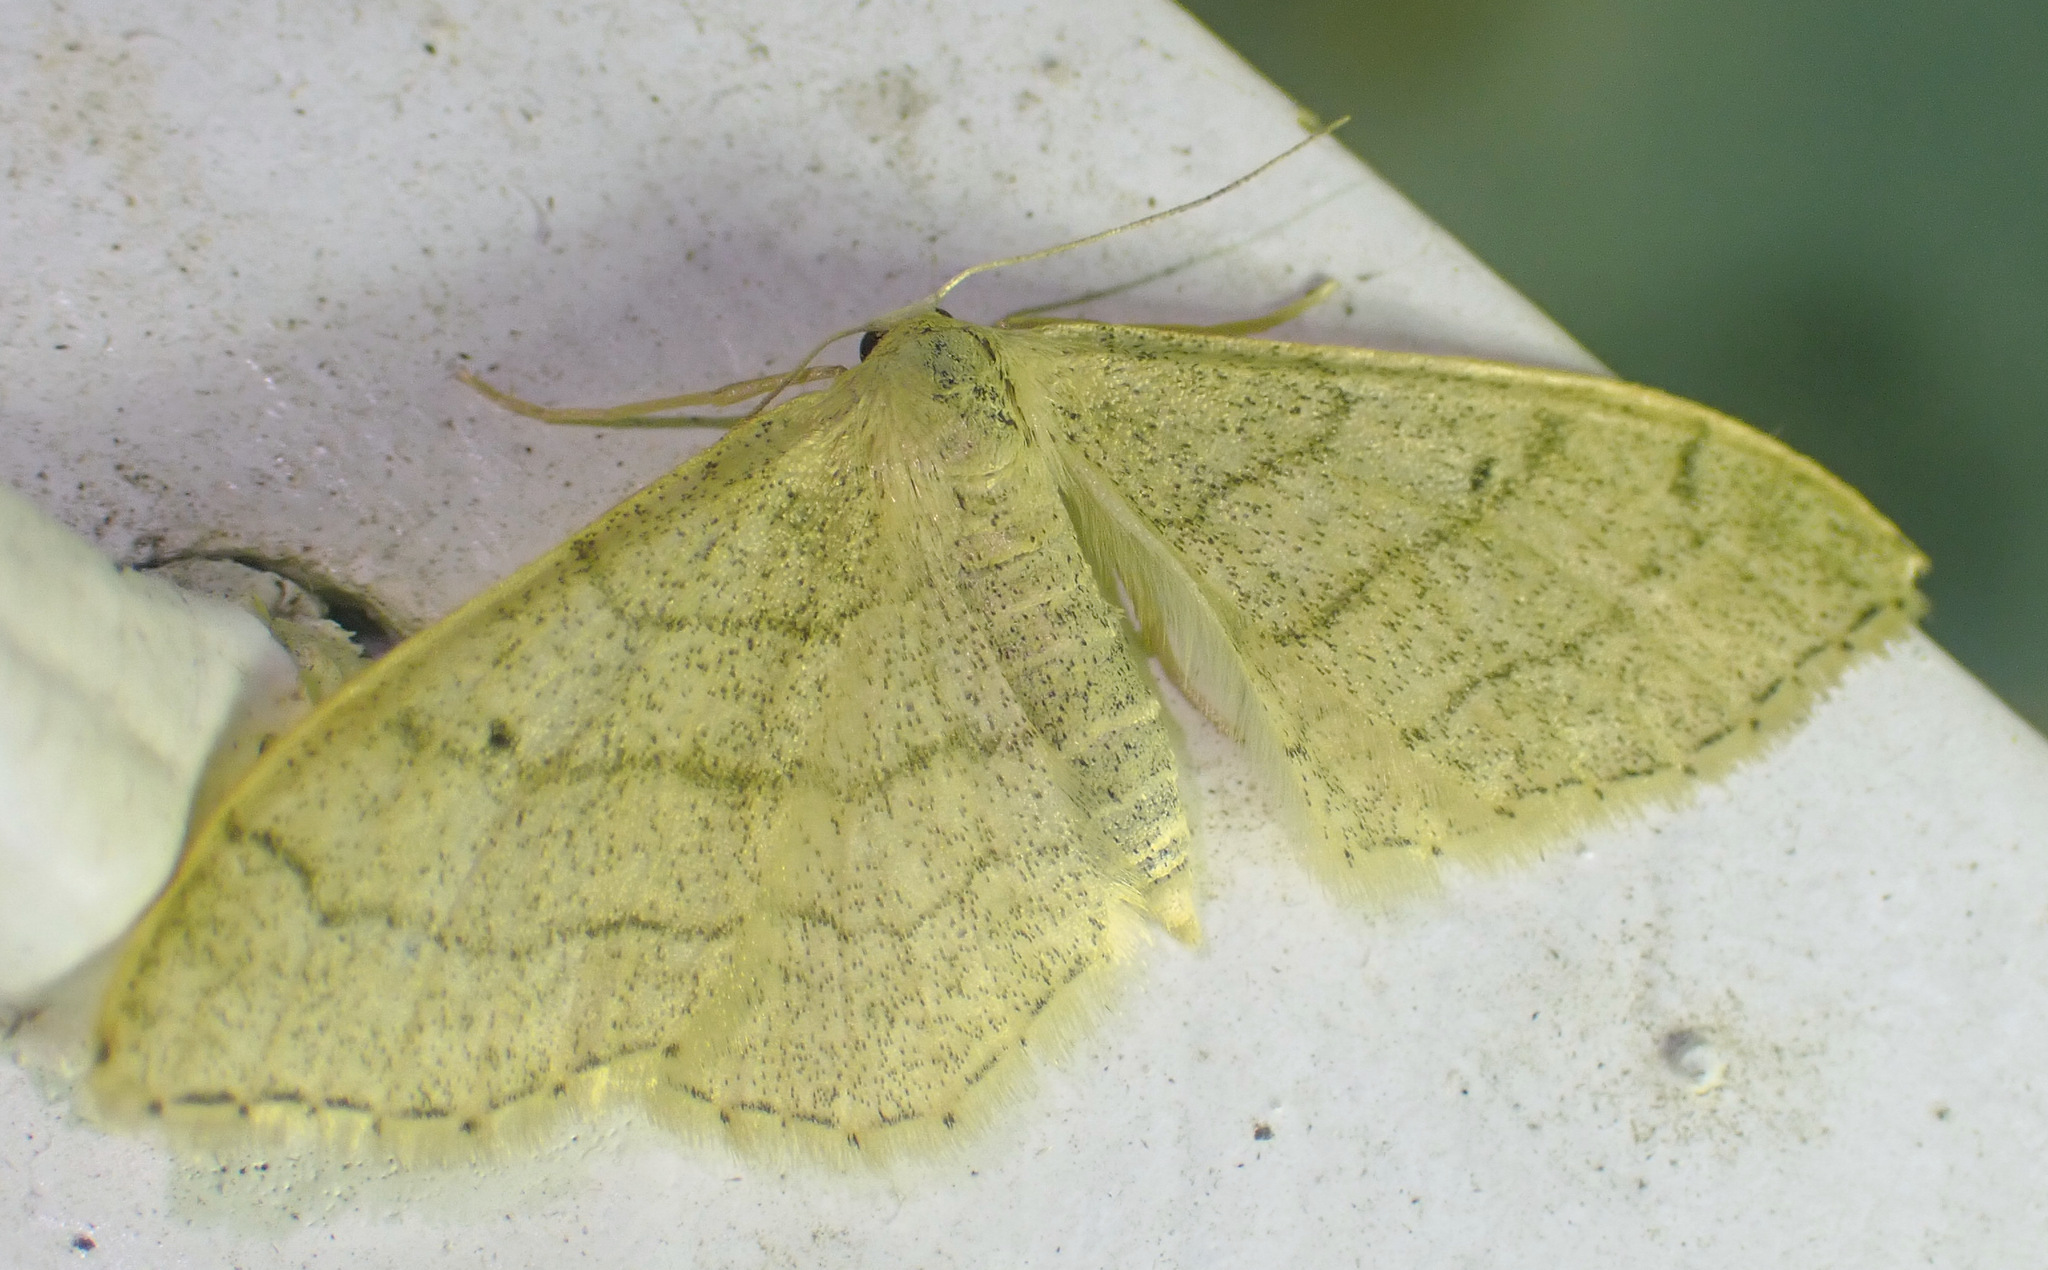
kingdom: Animalia
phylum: Arthropoda
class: Insecta
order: Lepidoptera
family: Geometridae
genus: Idaea
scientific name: Idaea aversata
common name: Riband wave
